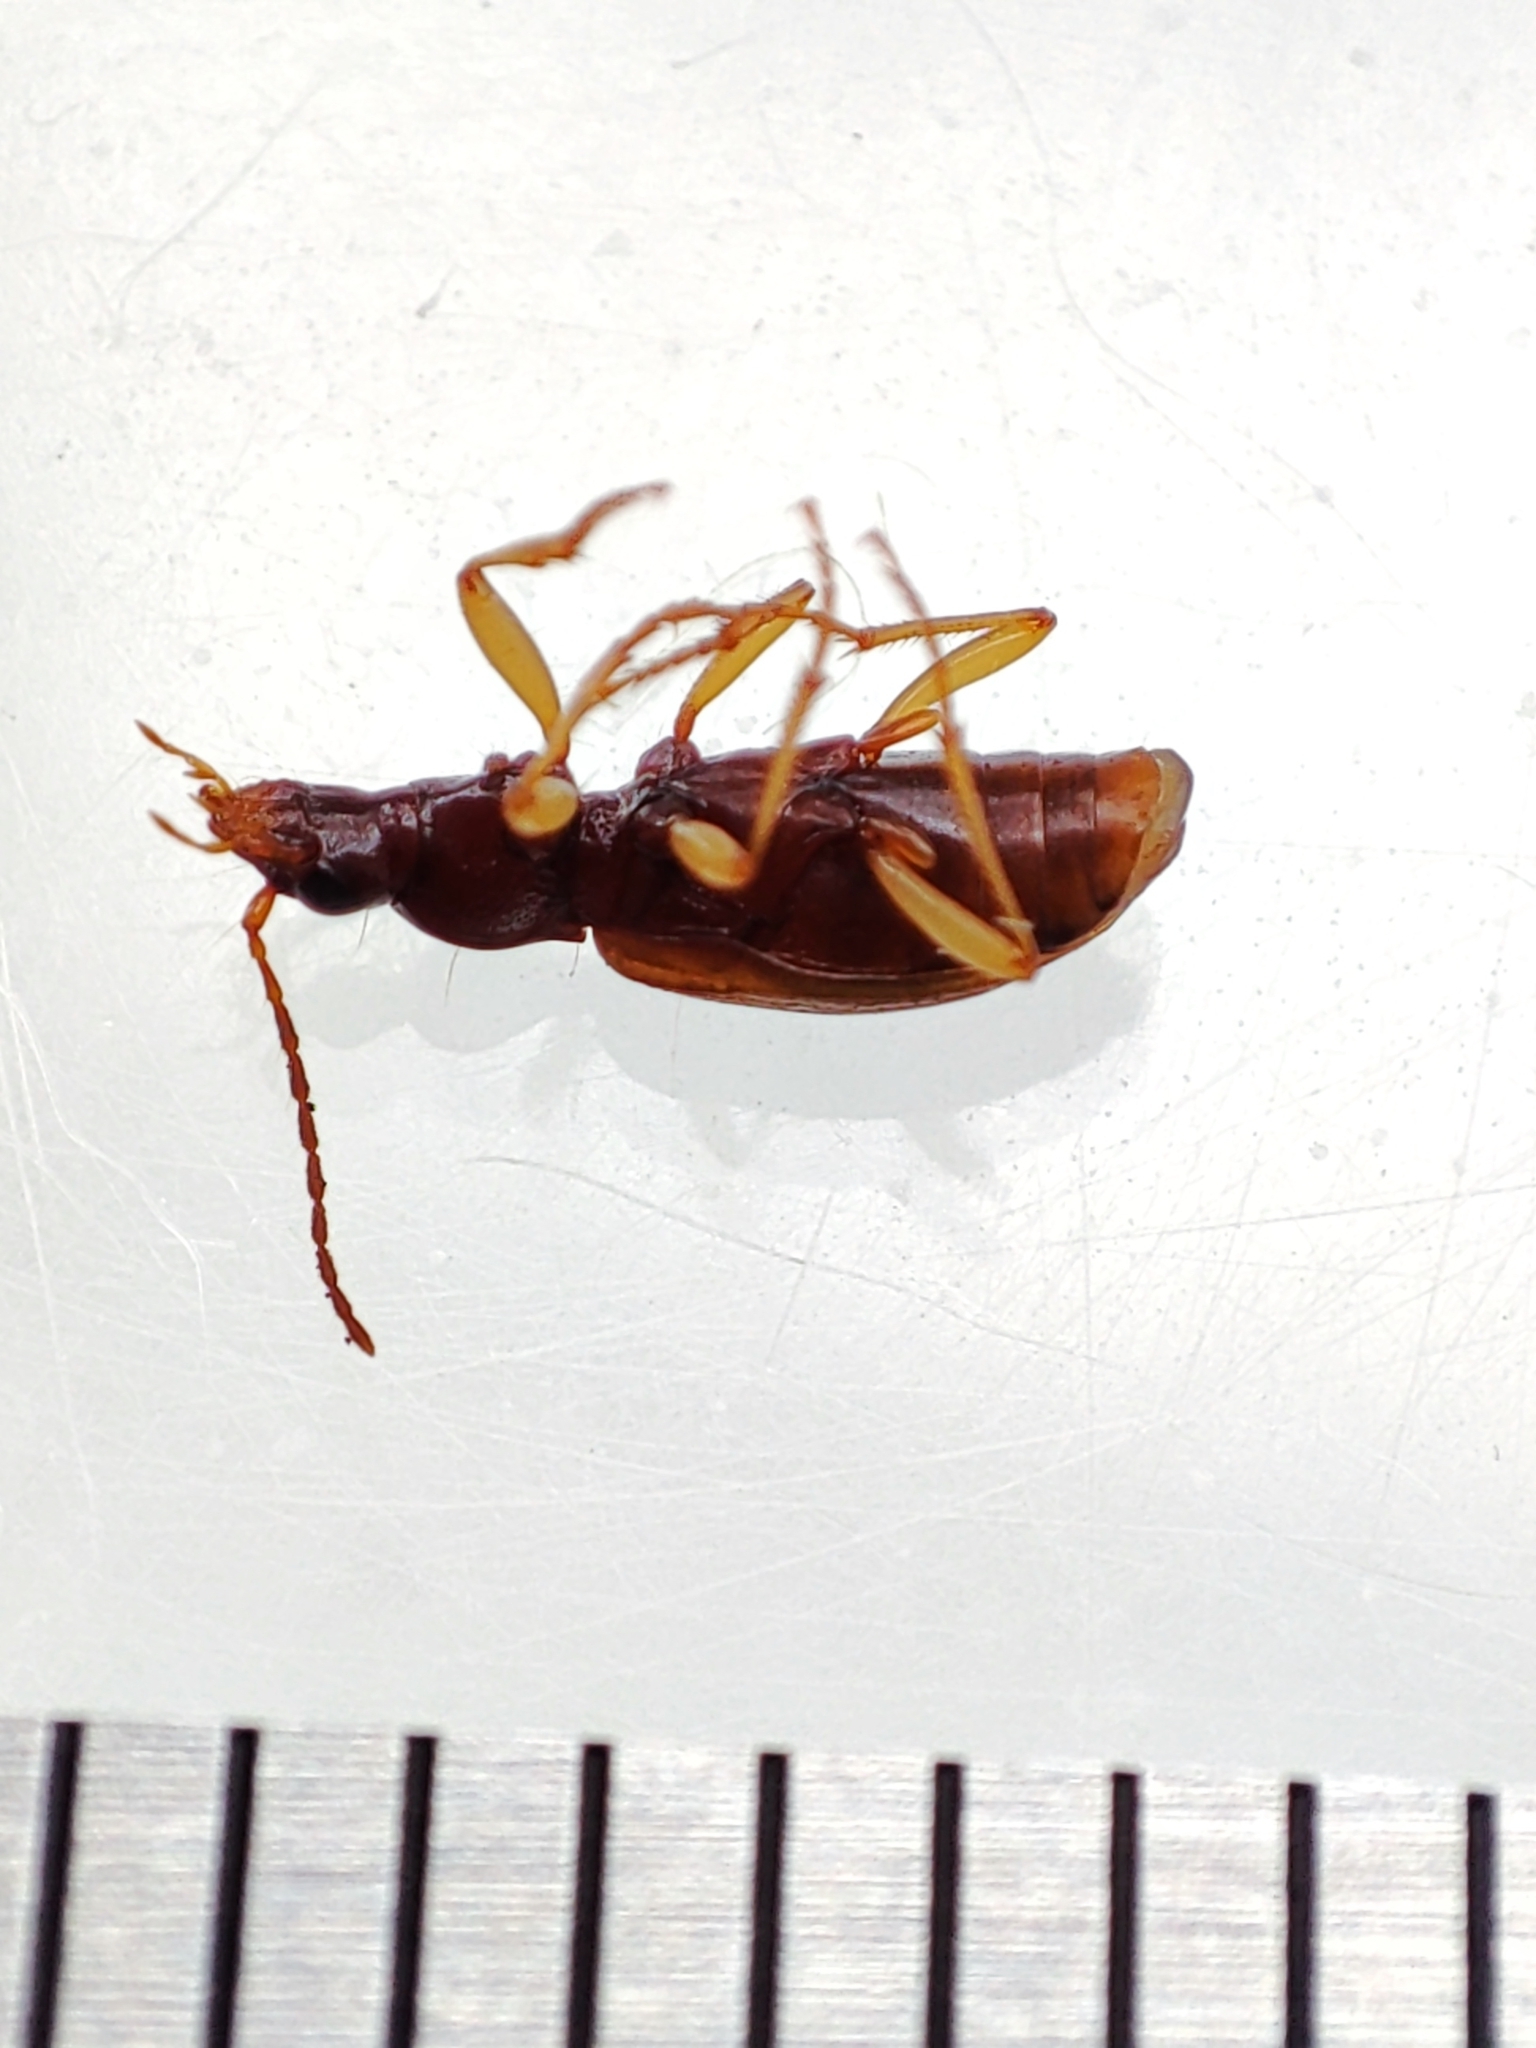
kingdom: Animalia
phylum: Arthropoda
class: Insecta
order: Coleoptera
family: Carabidae
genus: Oxypselaphus
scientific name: Oxypselaphus obscurus
